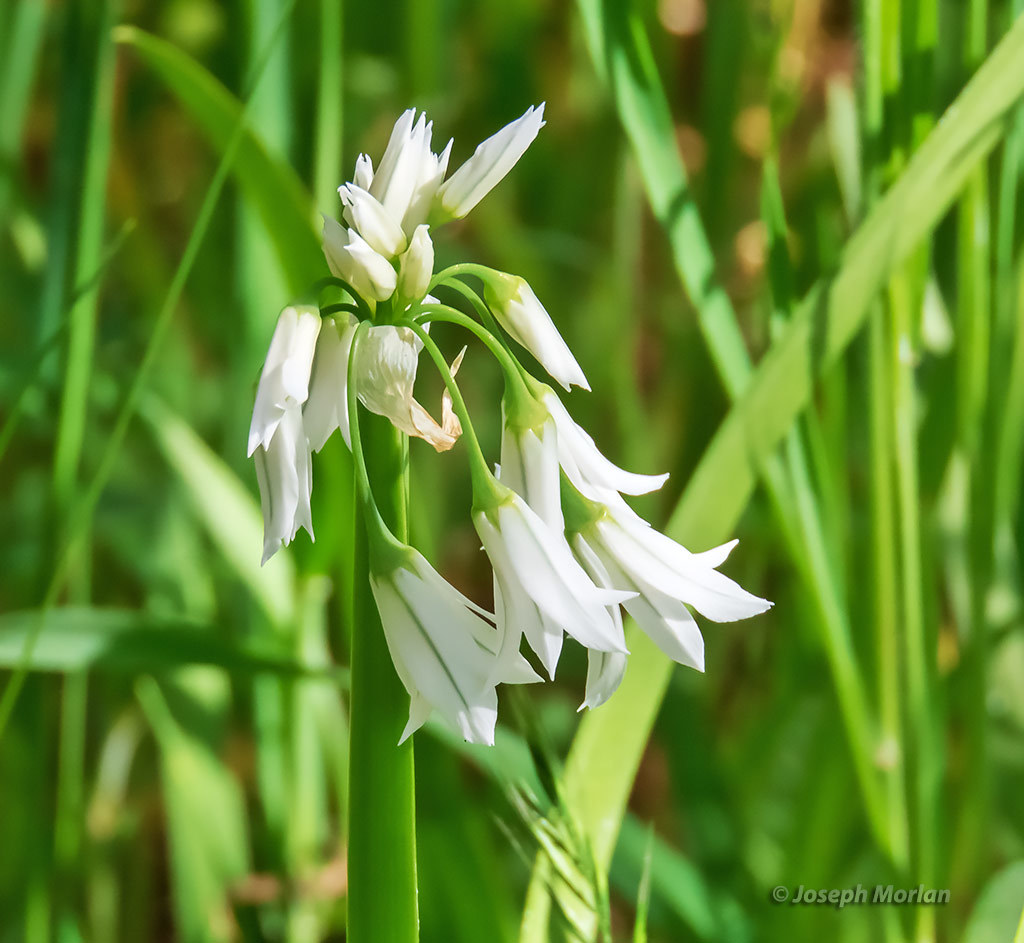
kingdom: Plantae
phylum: Tracheophyta
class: Liliopsida
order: Asparagales
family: Amaryllidaceae
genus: Allium
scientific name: Allium triquetrum
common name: Three-cornered garlic
